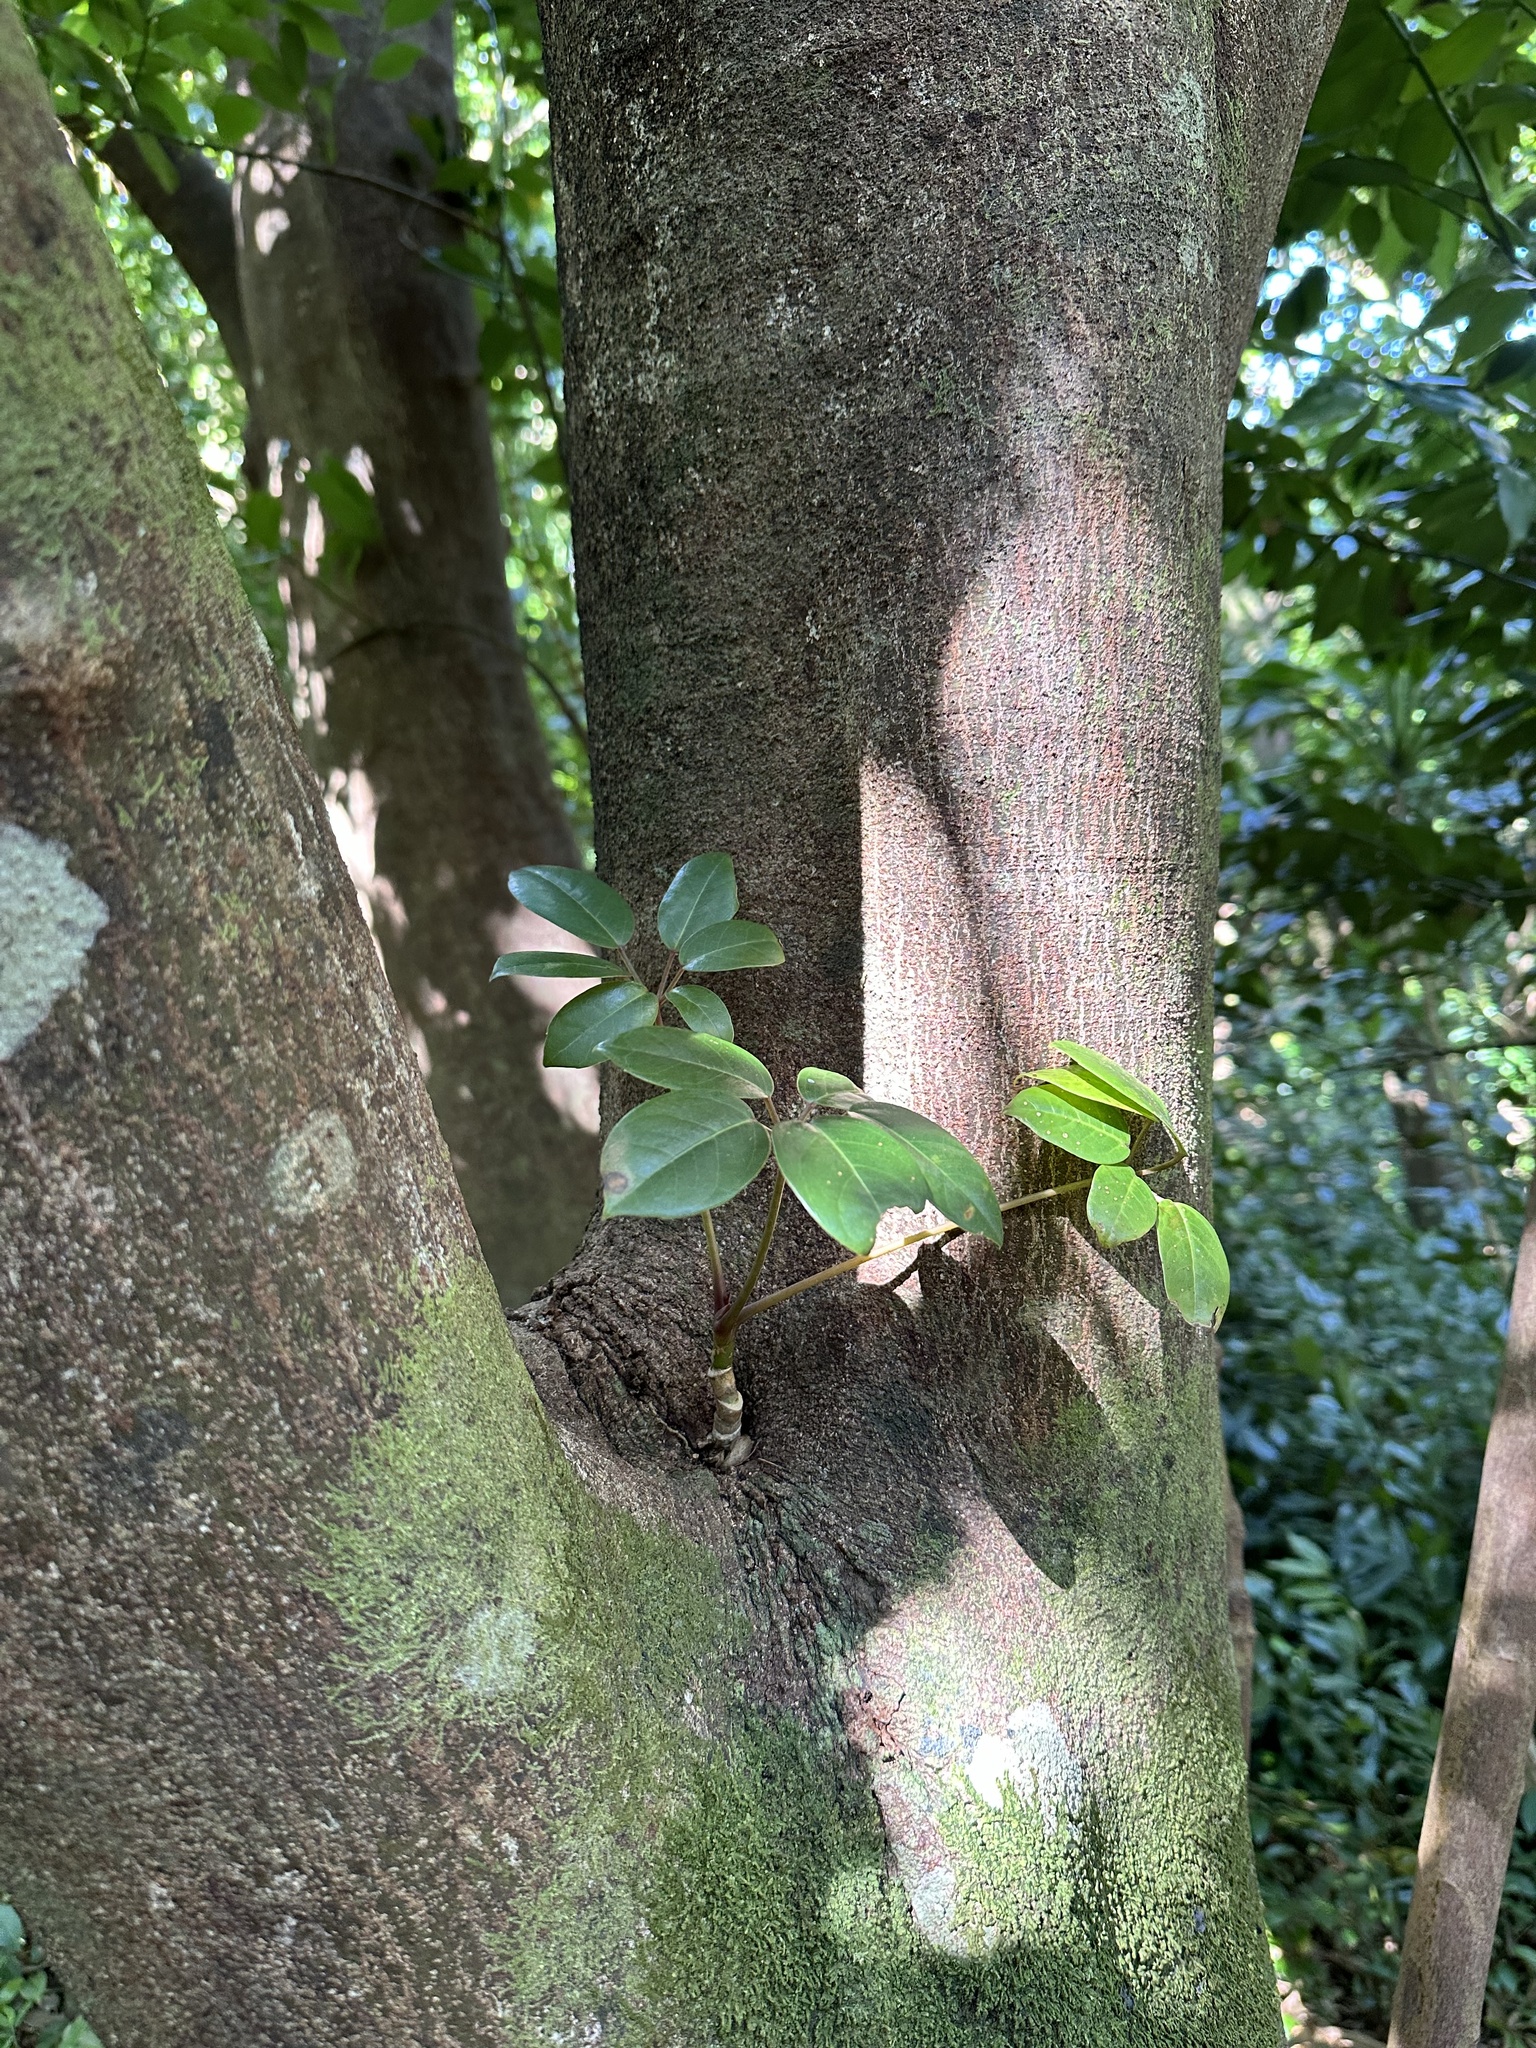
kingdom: Plantae
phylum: Tracheophyta
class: Magnoliopsida
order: Apiales
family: Araliaceae
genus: Heptapleurum
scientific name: Heptapleurum actinophyllum
